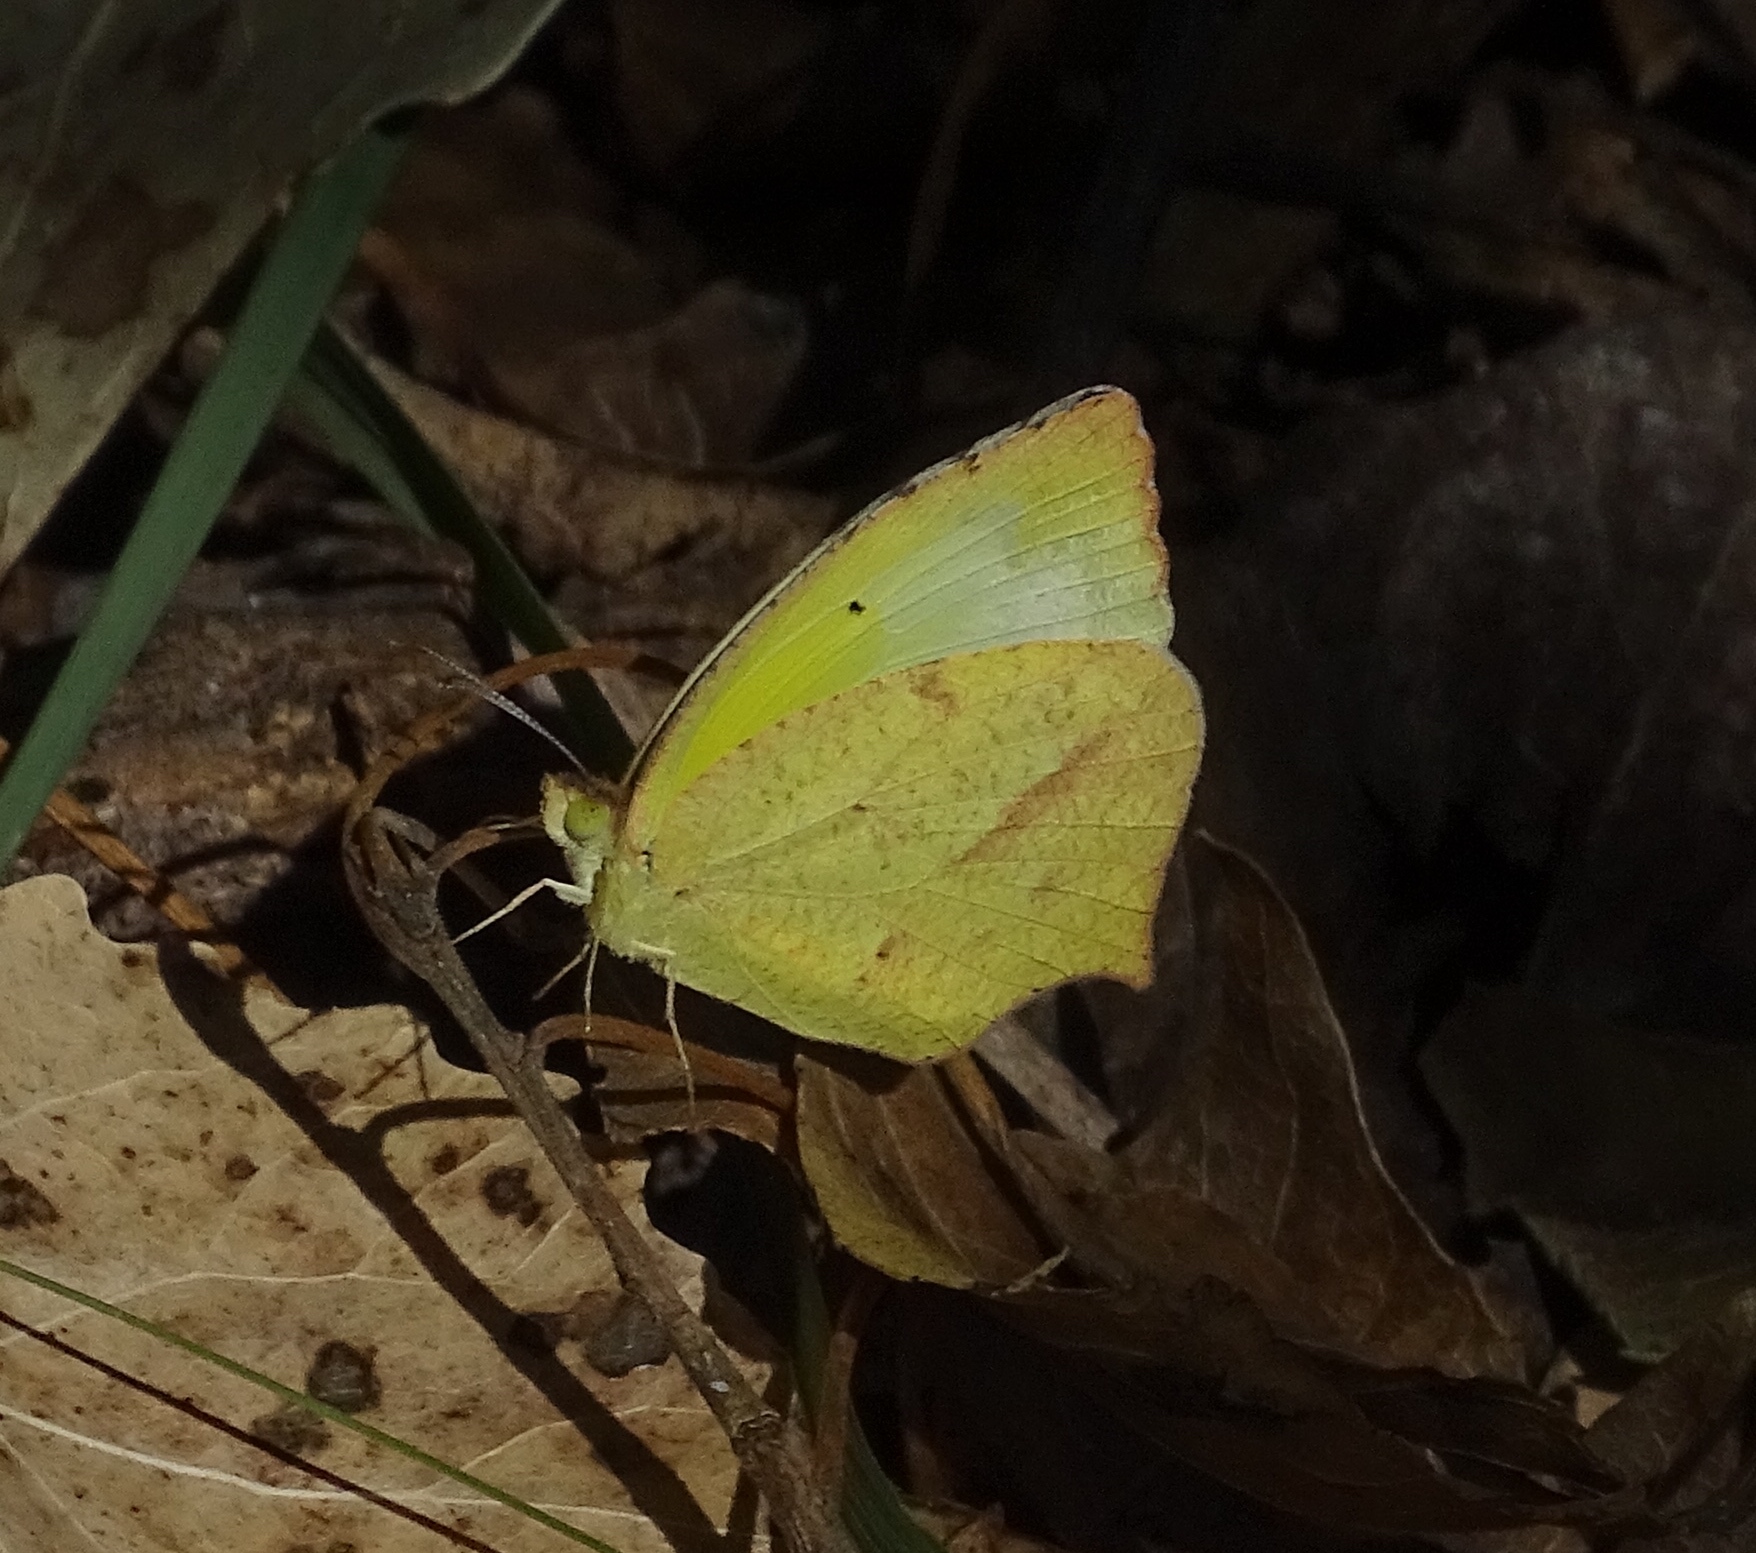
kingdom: Animalia
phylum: Arthropoda
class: Insecta
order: Lepidoptera
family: Pieridae
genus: Abaeis
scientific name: Abaeis mexicana
